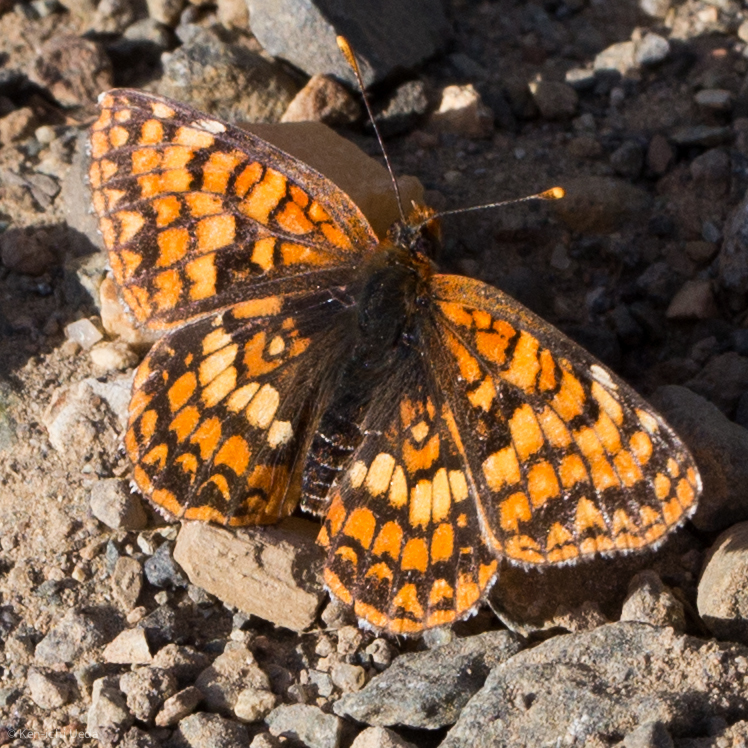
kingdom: Animalia
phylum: Arthropoda
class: Insecta
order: Lepidoptera
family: Nymphalidae
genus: Chlosyne
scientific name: Chlosyne palla
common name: Northern checkerspot
